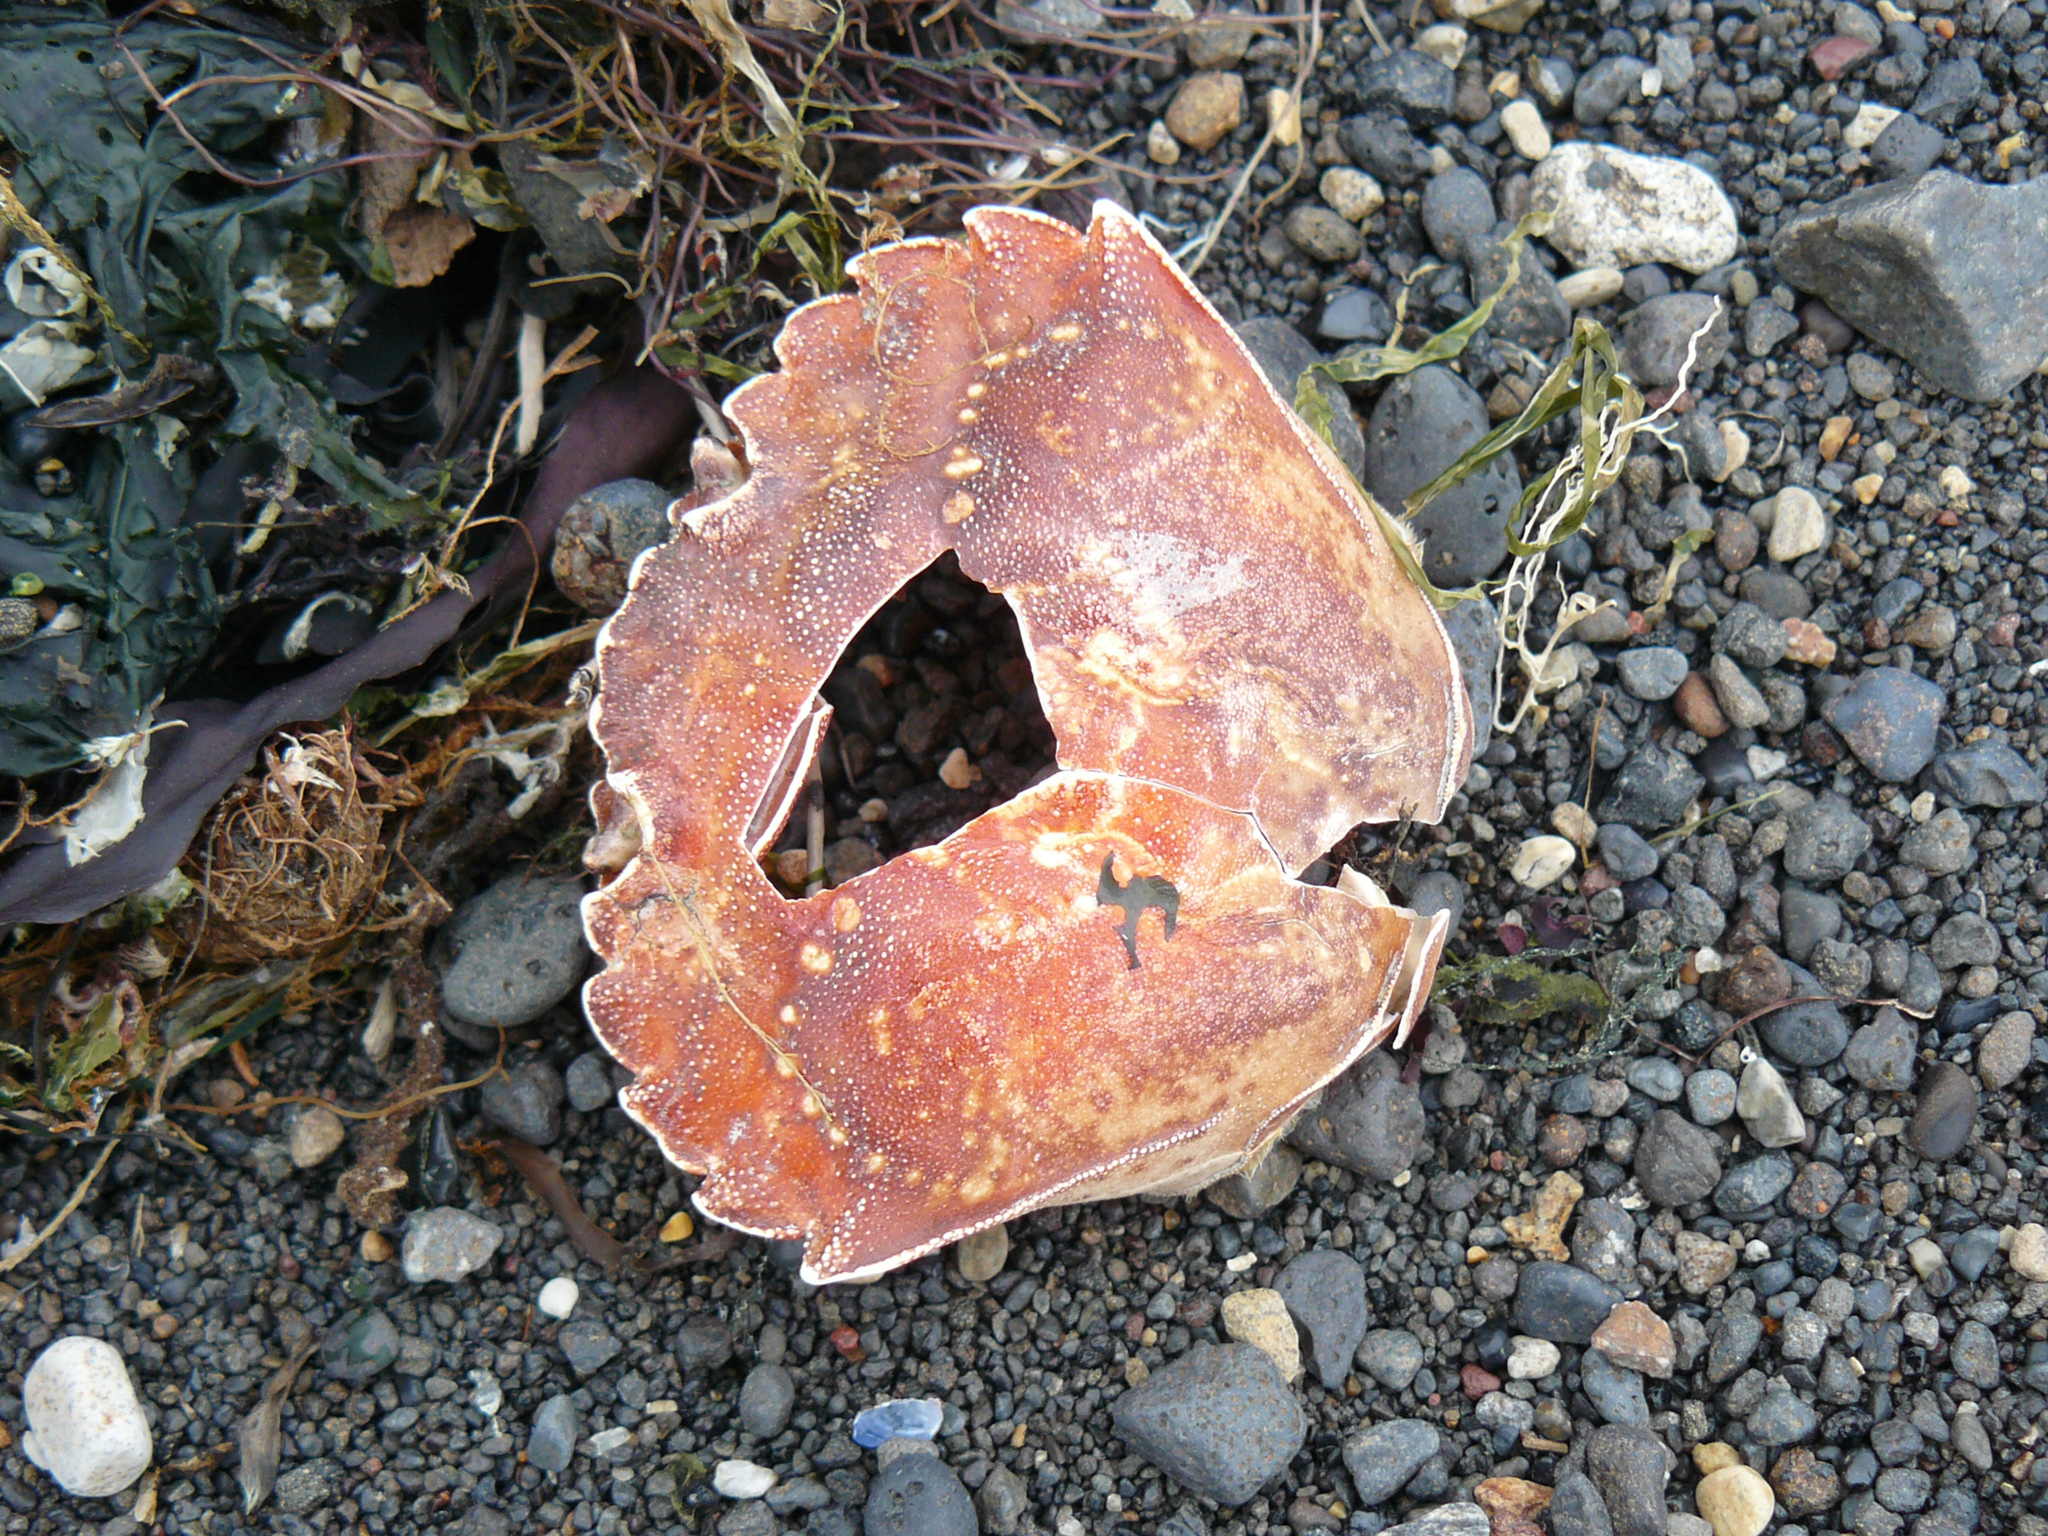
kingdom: Animalia
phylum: Arthropoda
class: Malacostraca
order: Decapoda
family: Carcinidae
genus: Carcinus
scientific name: Carcinus maenas
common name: European green crab
